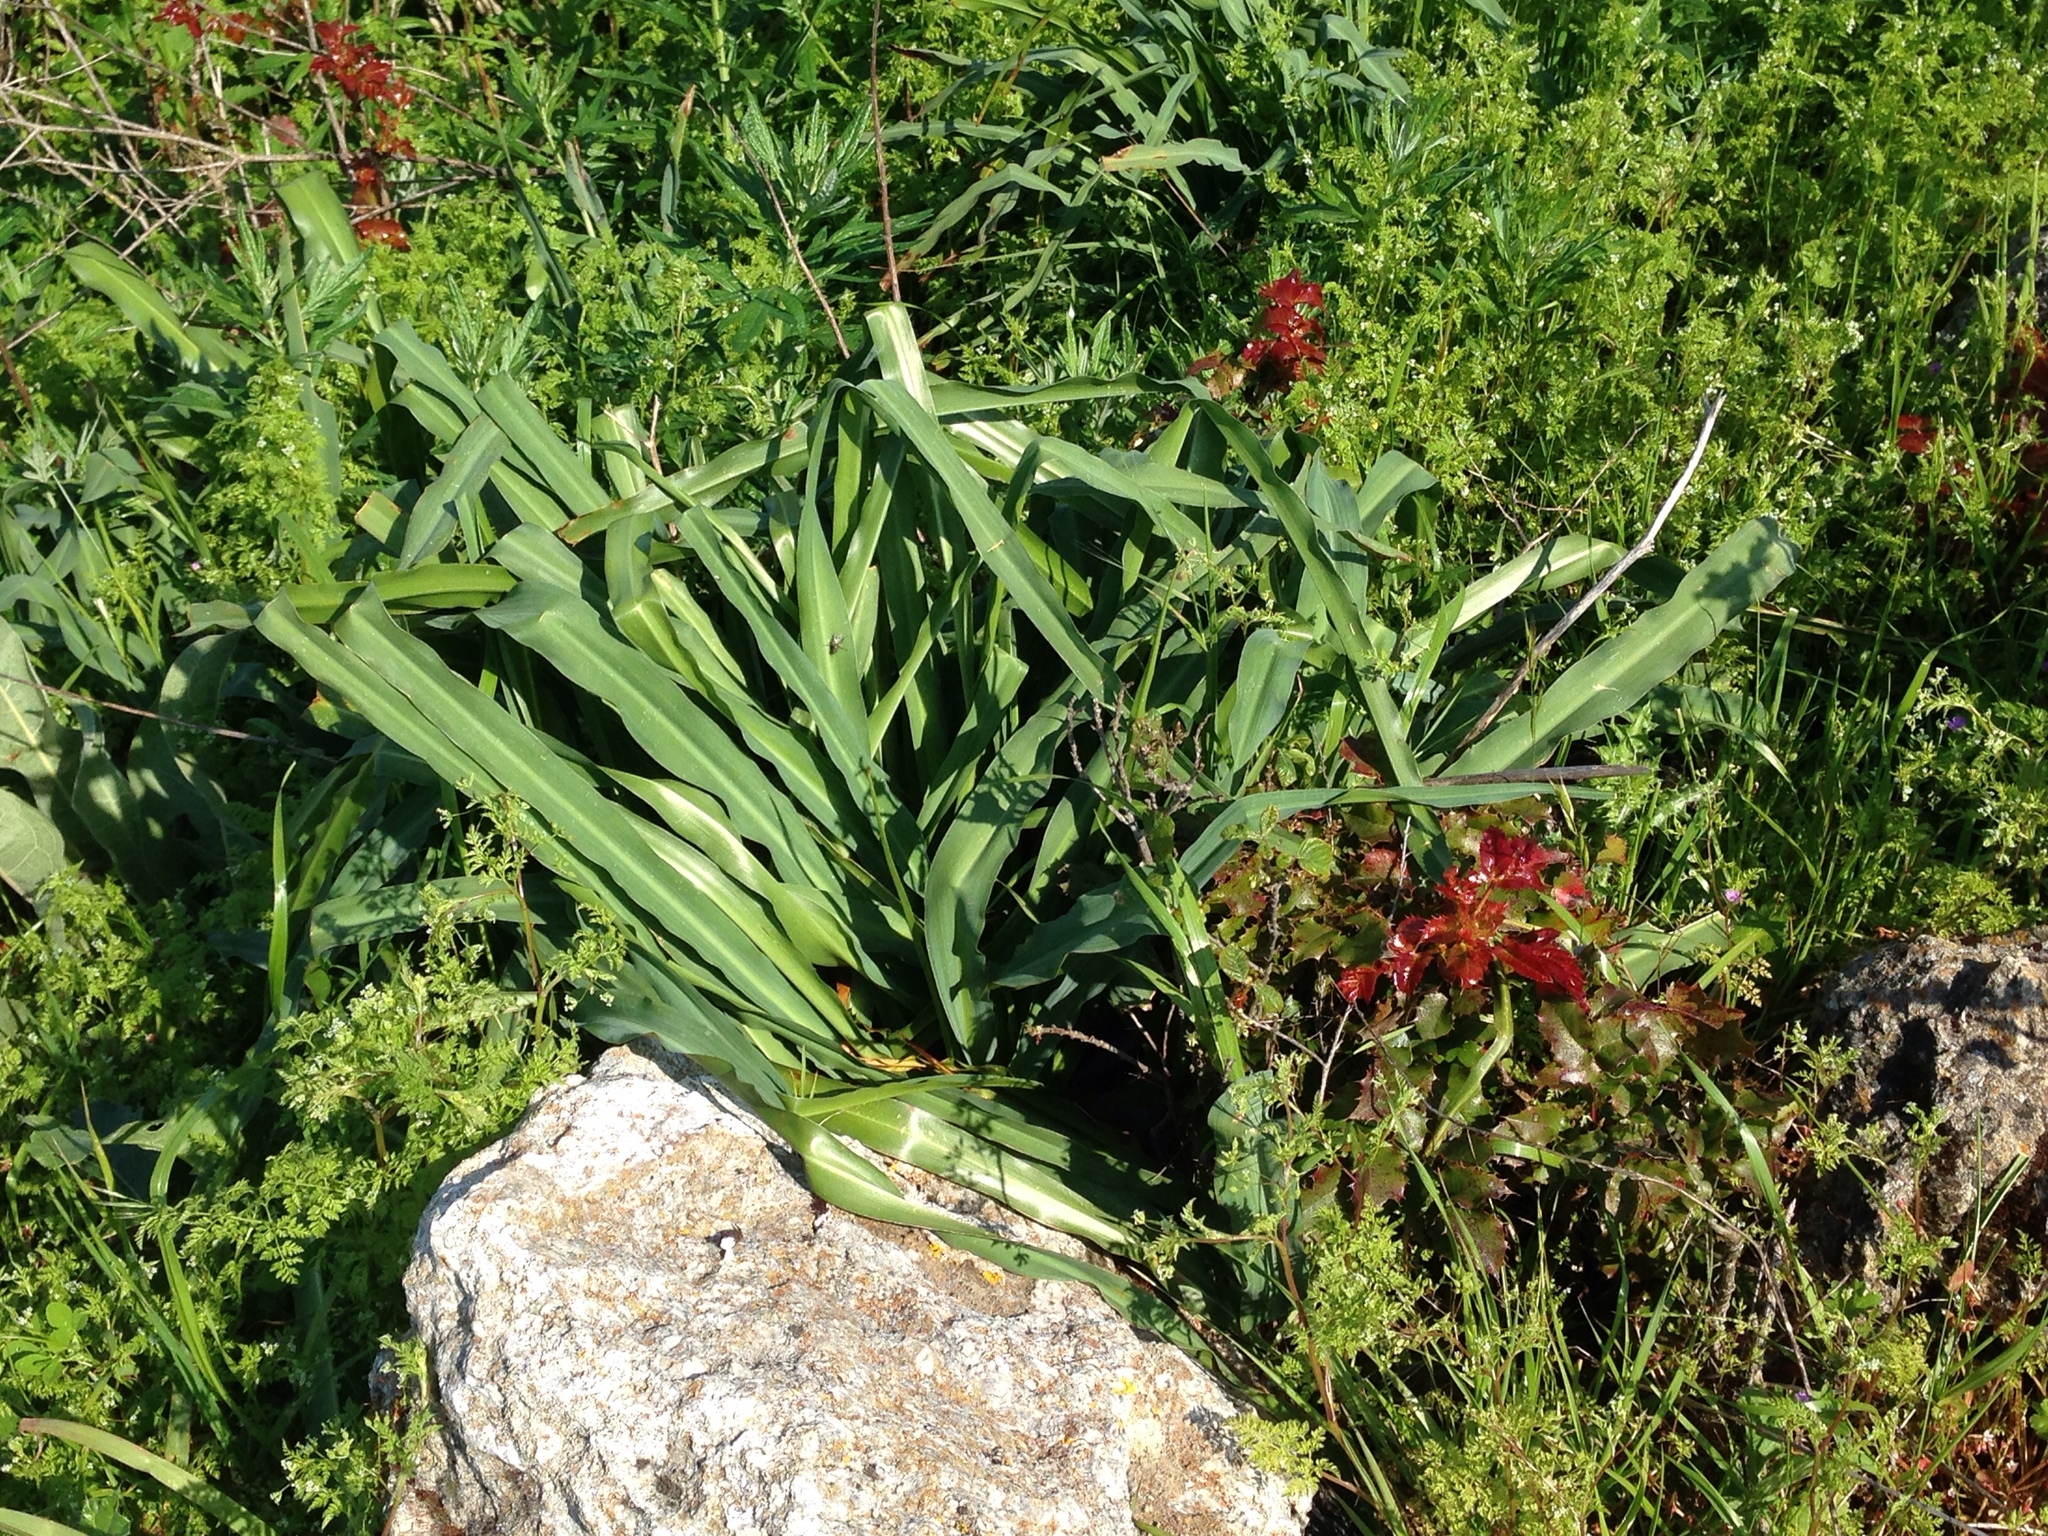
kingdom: Plantae
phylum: Tracheophyta
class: Liliopsida
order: Asparagales
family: Asparagaceae
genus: Chlorogalum
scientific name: Chlorogalum pomeridianum
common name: Amole
